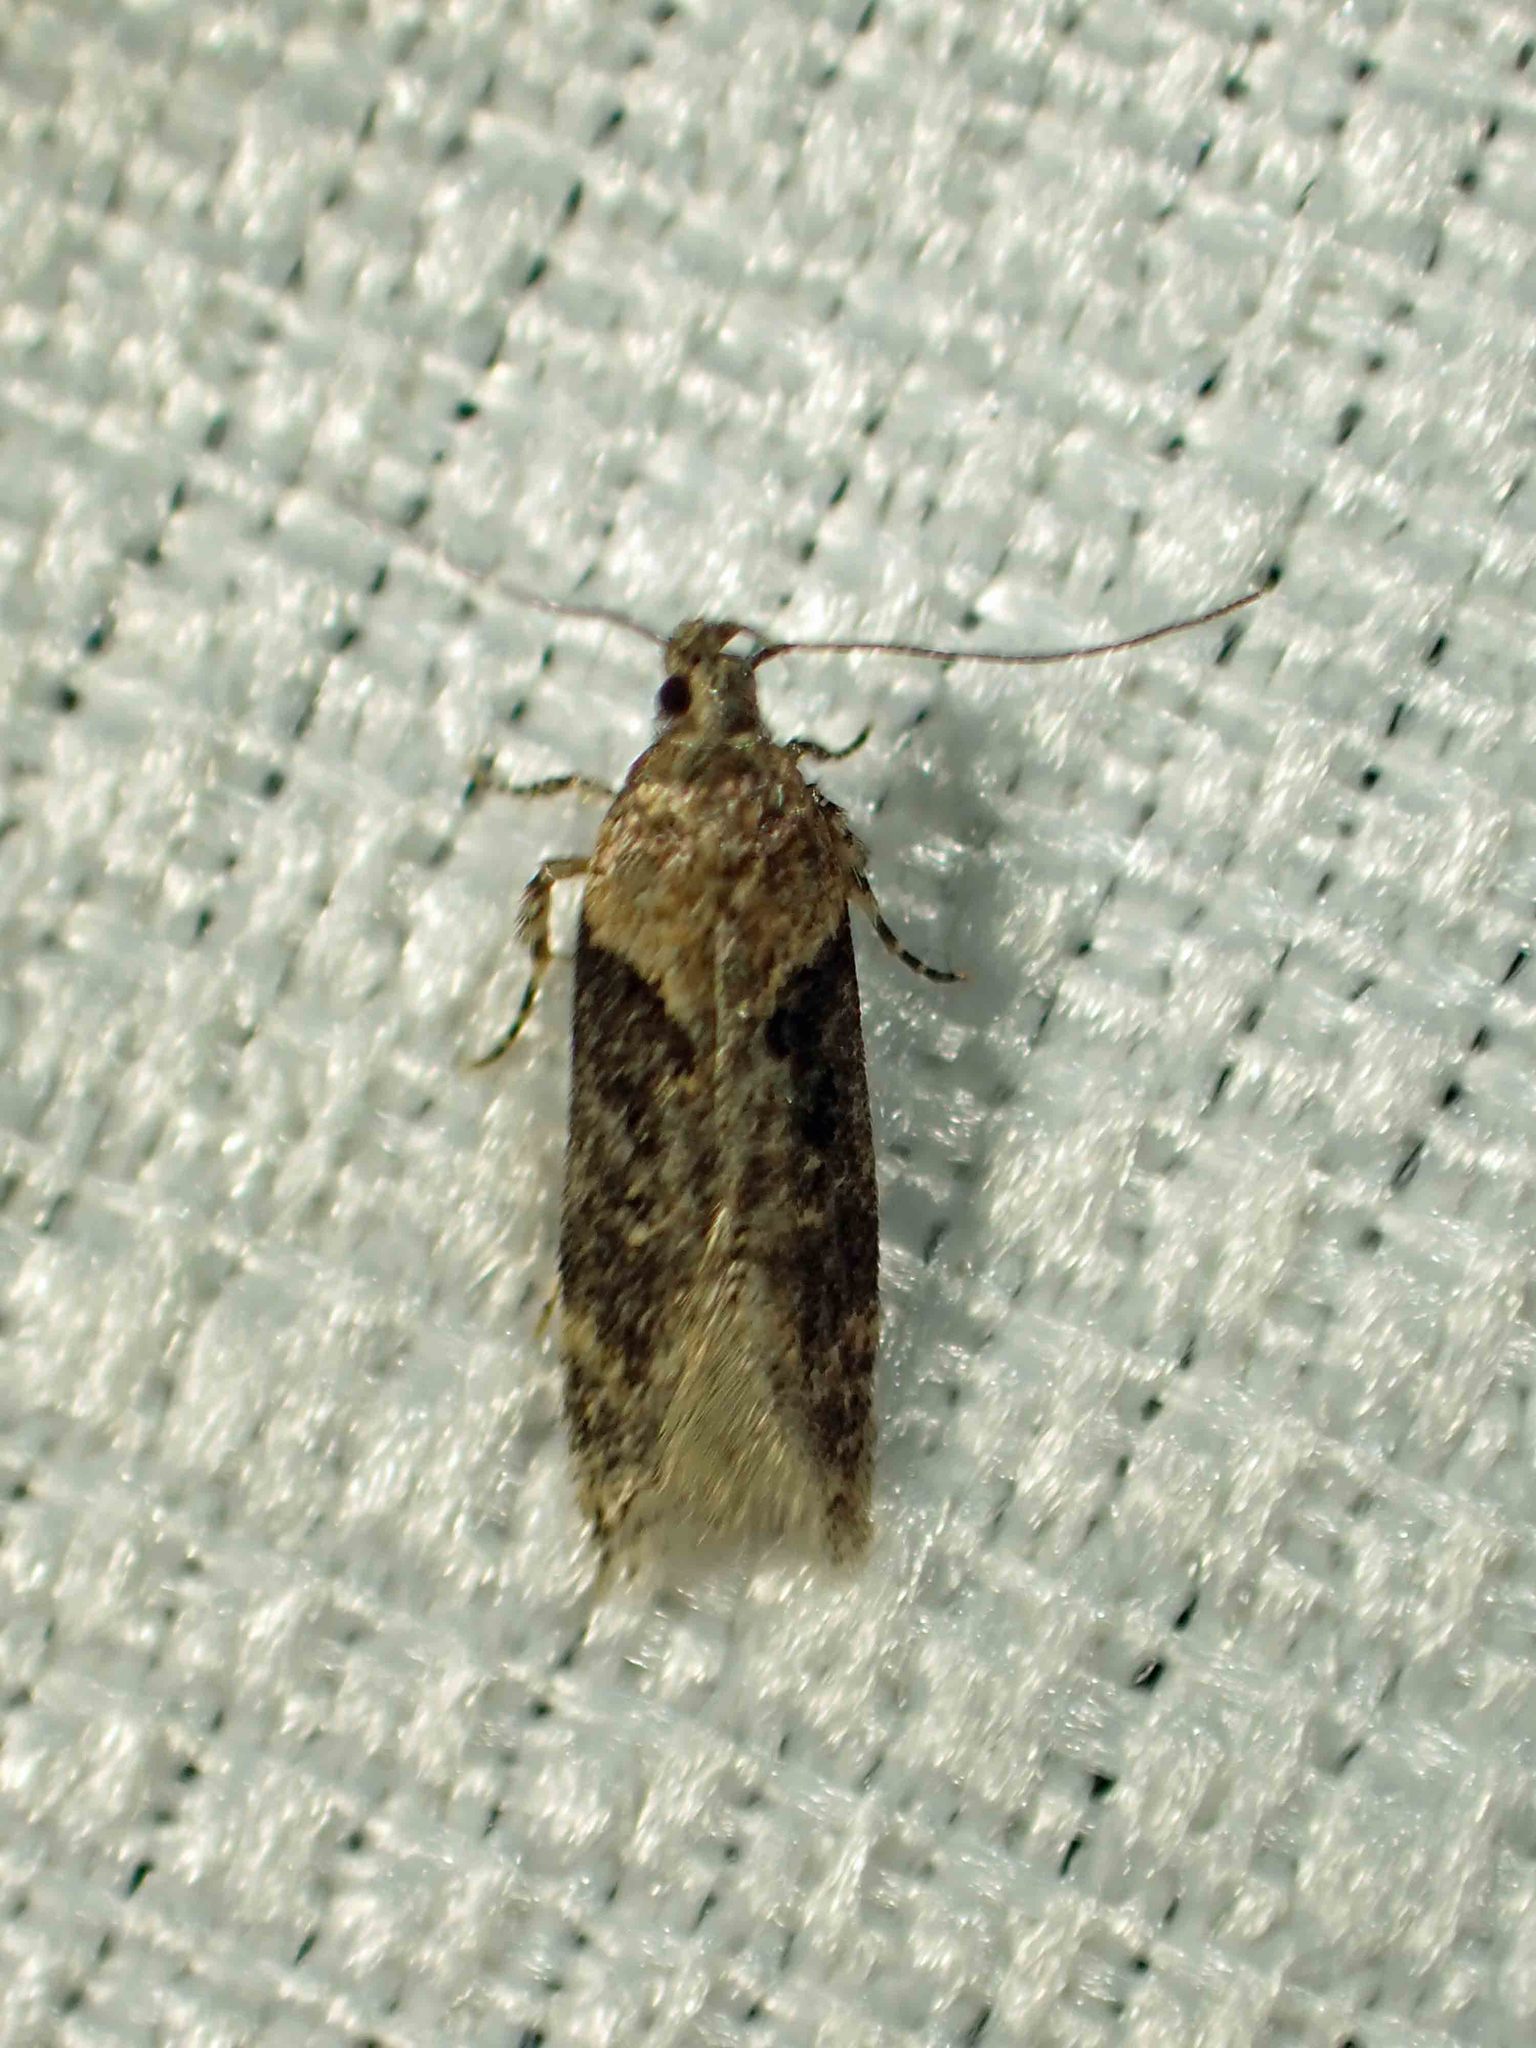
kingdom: Animalia
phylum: Arthropoda
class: Insecta
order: Lepidoptera
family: Gelechiidae
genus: Chionodes
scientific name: Chionodes mediofuscella
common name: Black-smudged chionodes moth
